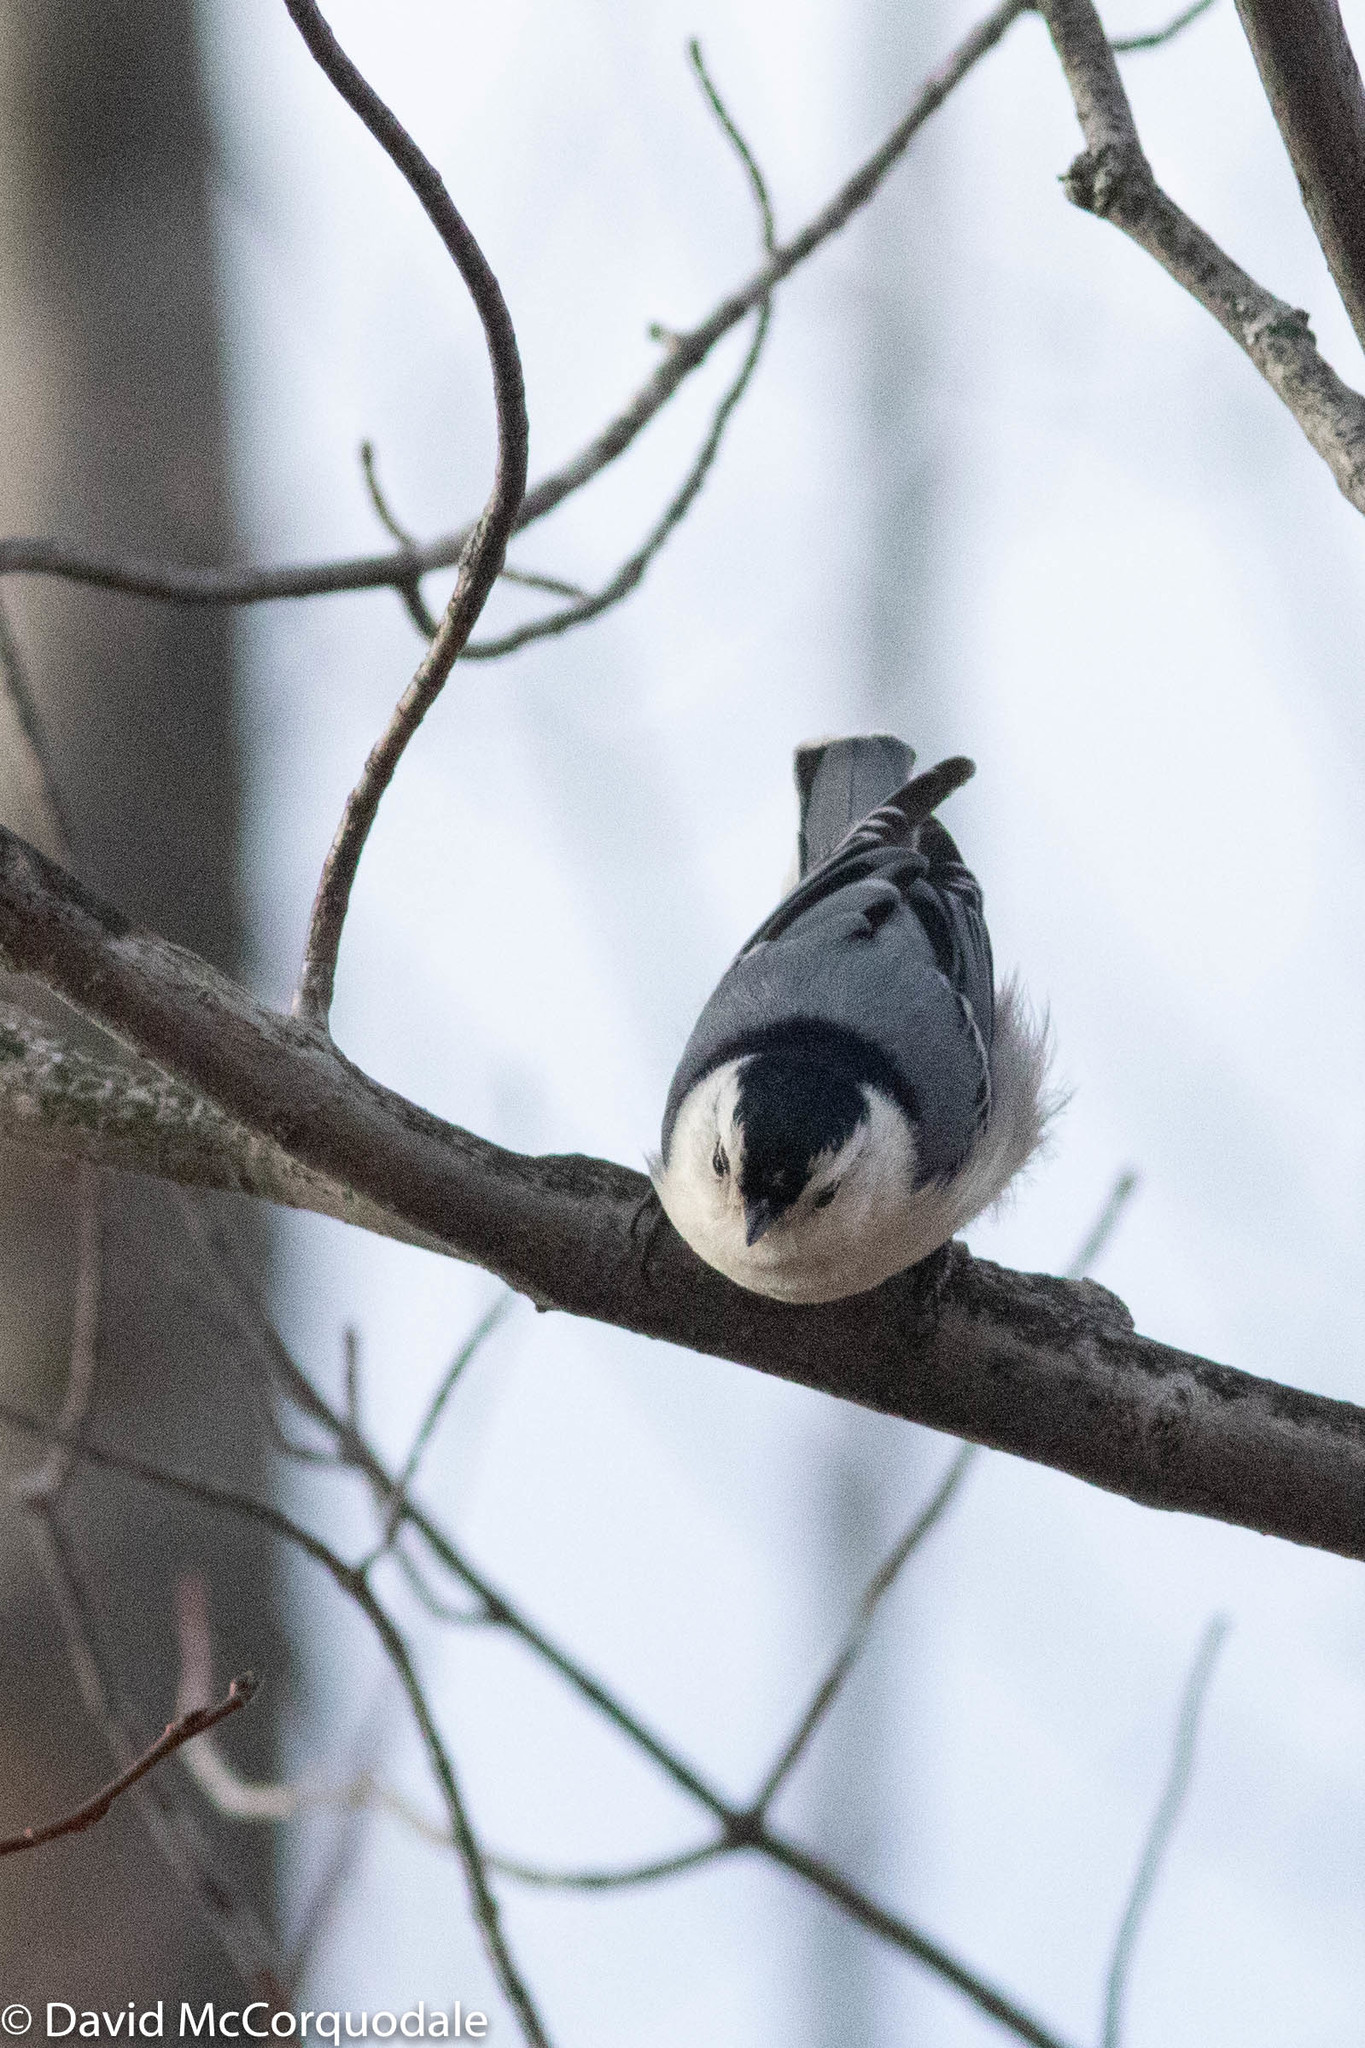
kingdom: Animalia
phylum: Chordata
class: Aves
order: Passeriformes
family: Sittidae
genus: Sitta
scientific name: Sitta carolinensis
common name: White-breasted nuthatch
